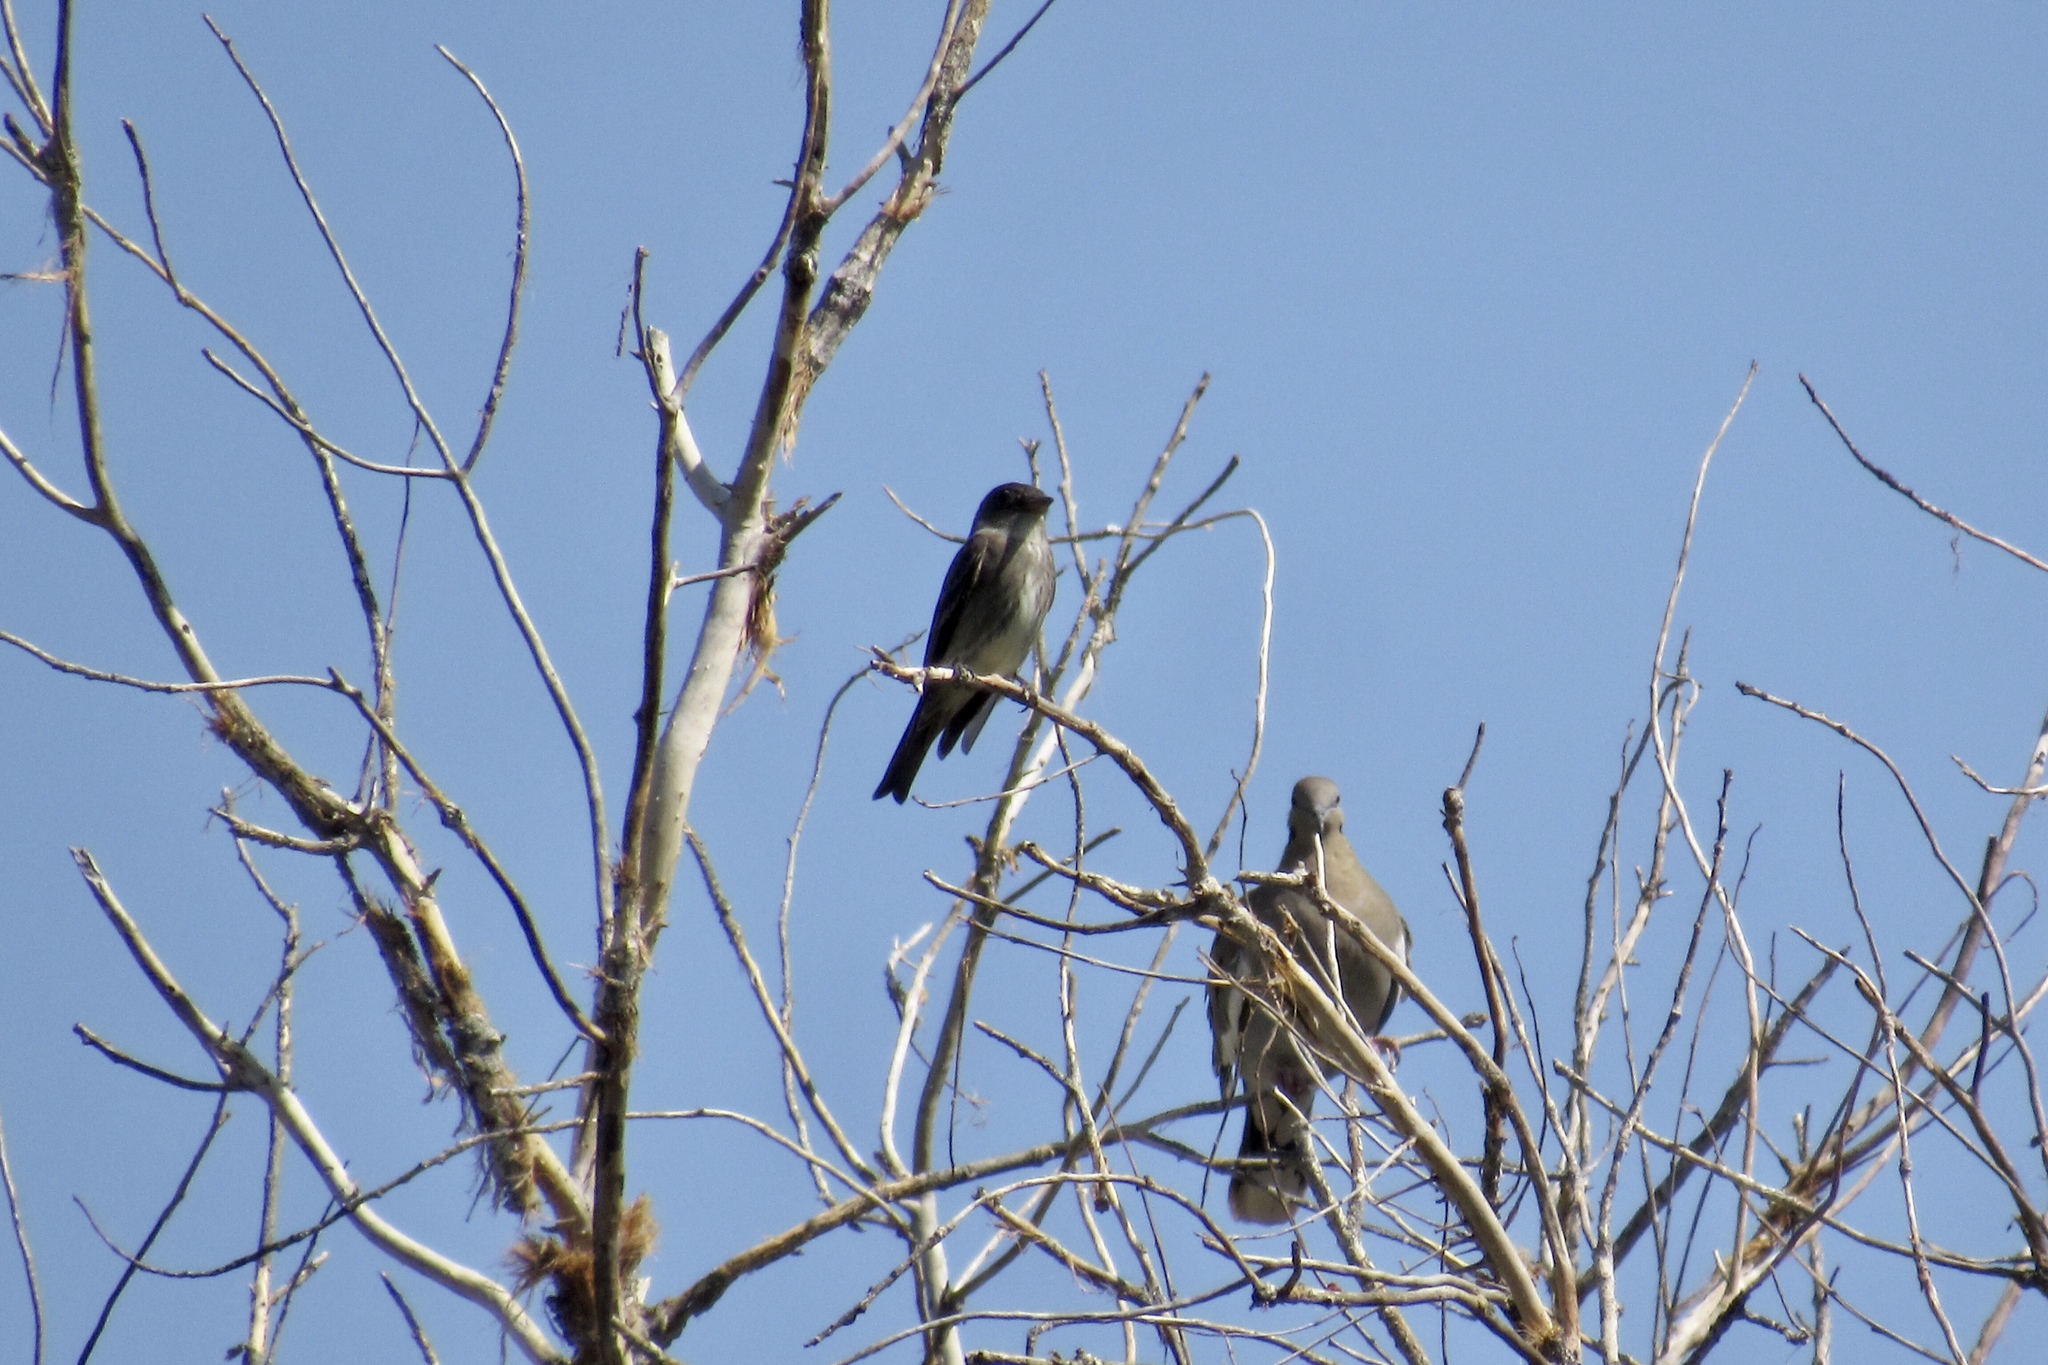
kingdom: Animalia
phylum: Chordata
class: Aves
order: Passeriformes
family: Tyrannidae
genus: Contopus
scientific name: Contopus cooperi
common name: Olive-sided flycatcher
